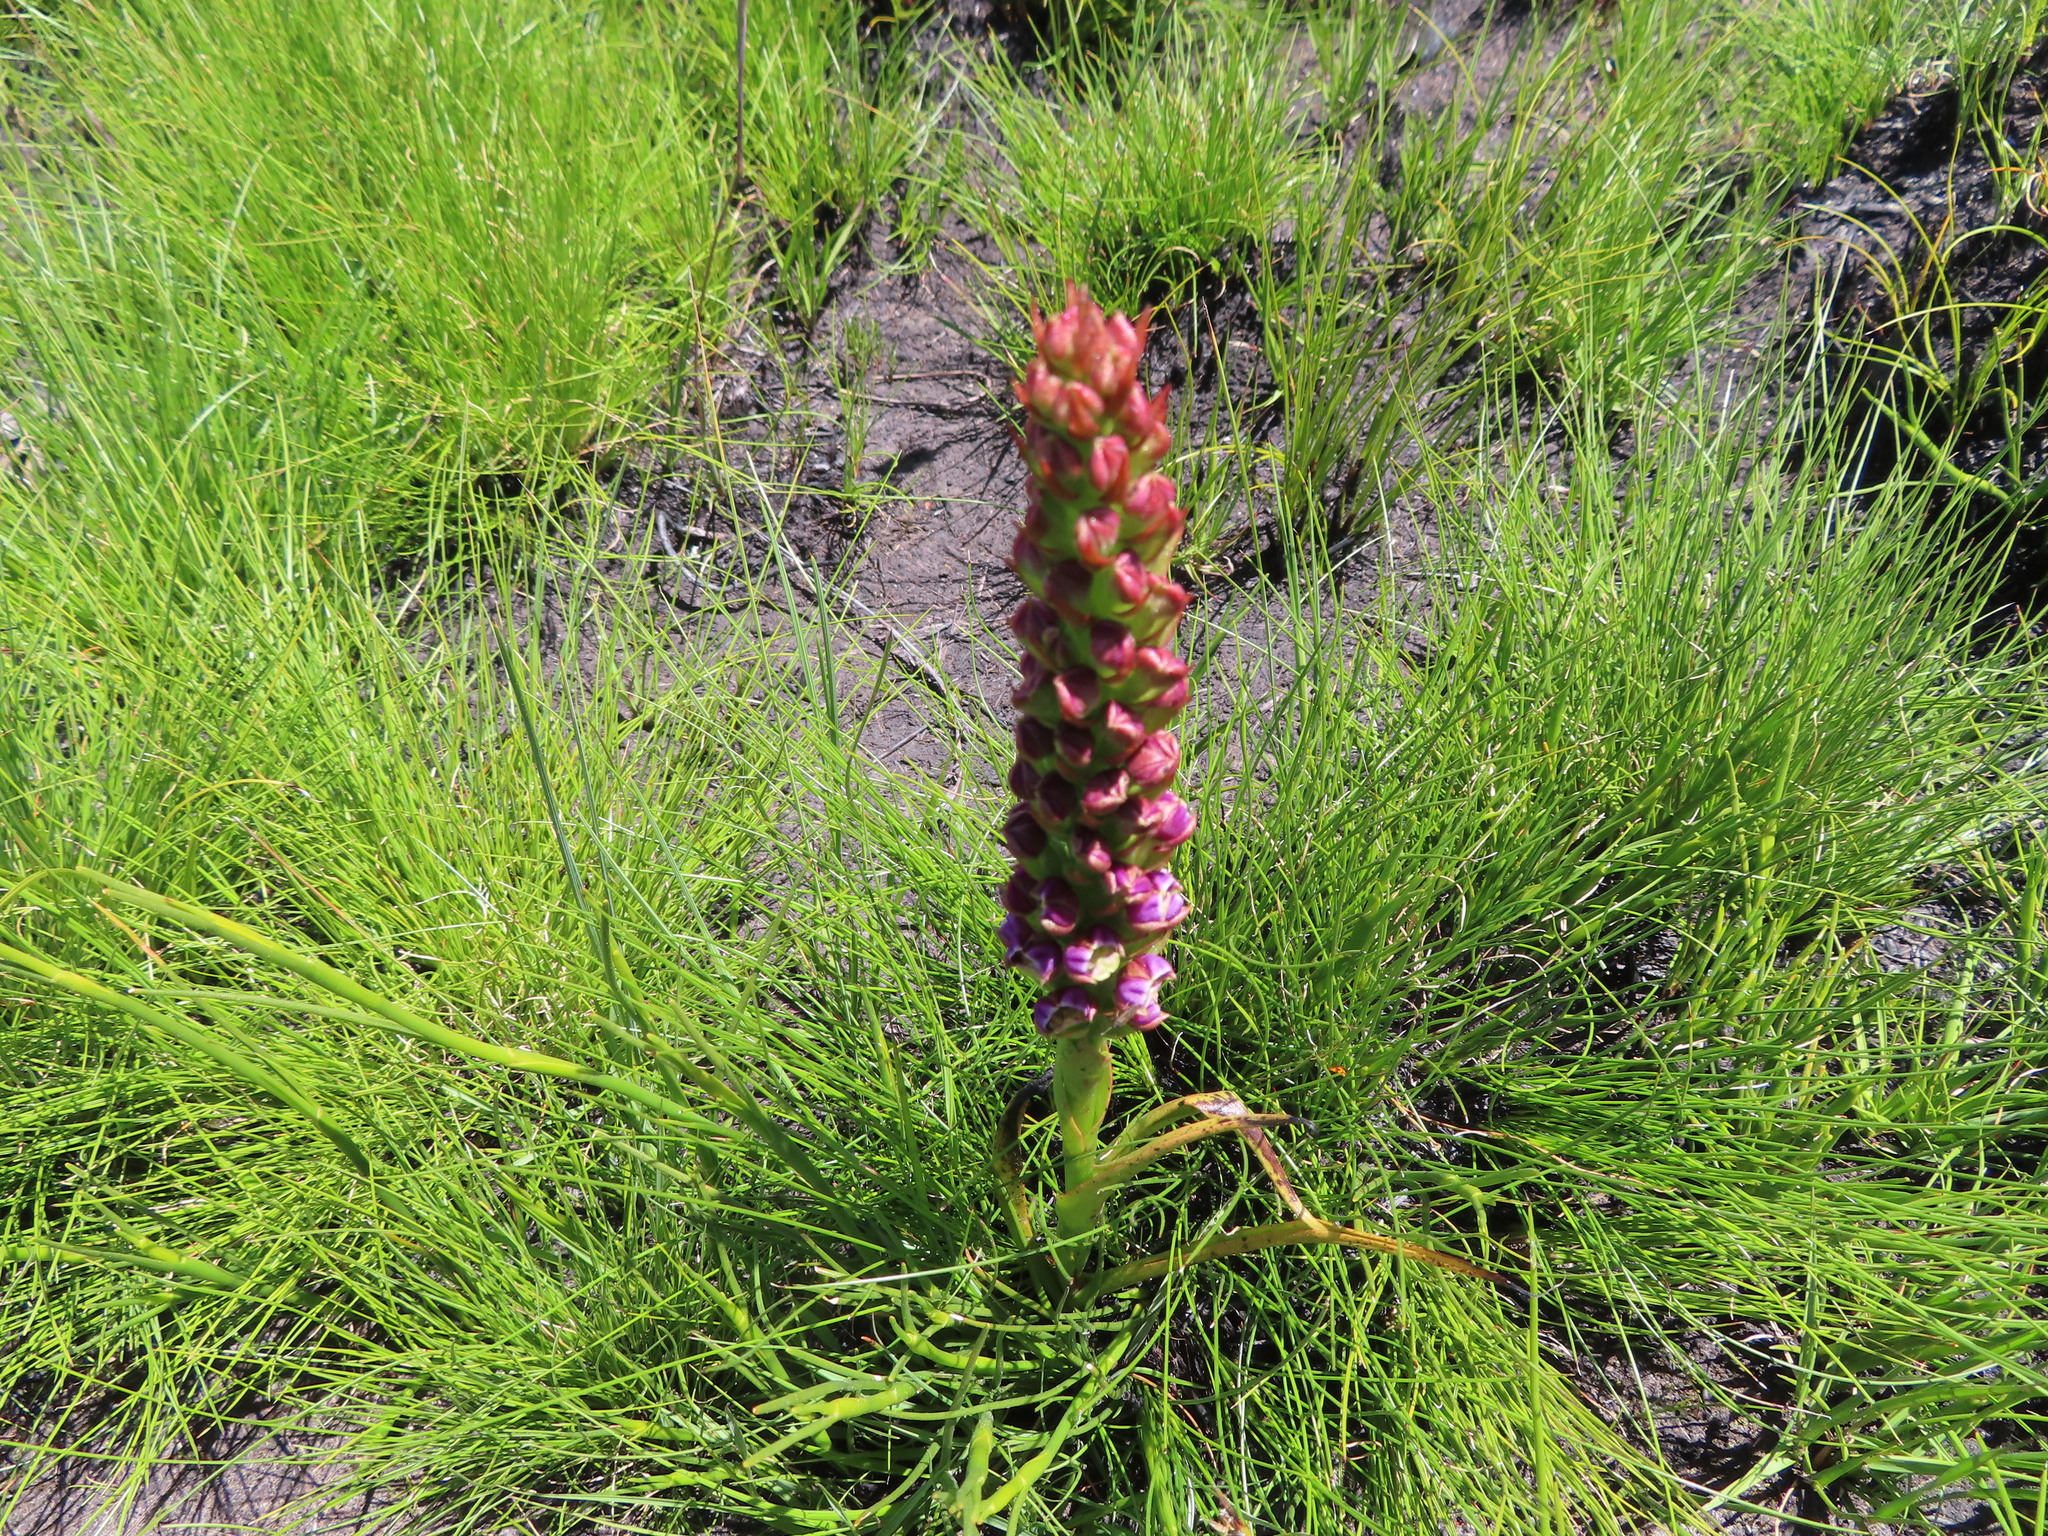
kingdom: Plantae
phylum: Tracheophyta
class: Liliopsida
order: Asparagales
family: Orchidaceae
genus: Evotella
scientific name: Evotella carnosa
